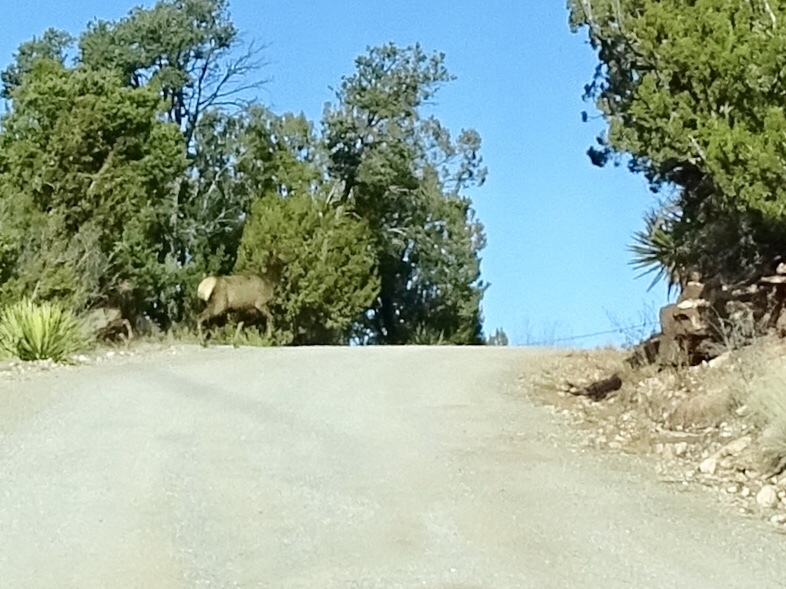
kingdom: Animalia
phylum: Chordata
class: Mammalia
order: Artiodactyla
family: Cervidae
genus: Cervus
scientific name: Cervus elaphus
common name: Red deer
